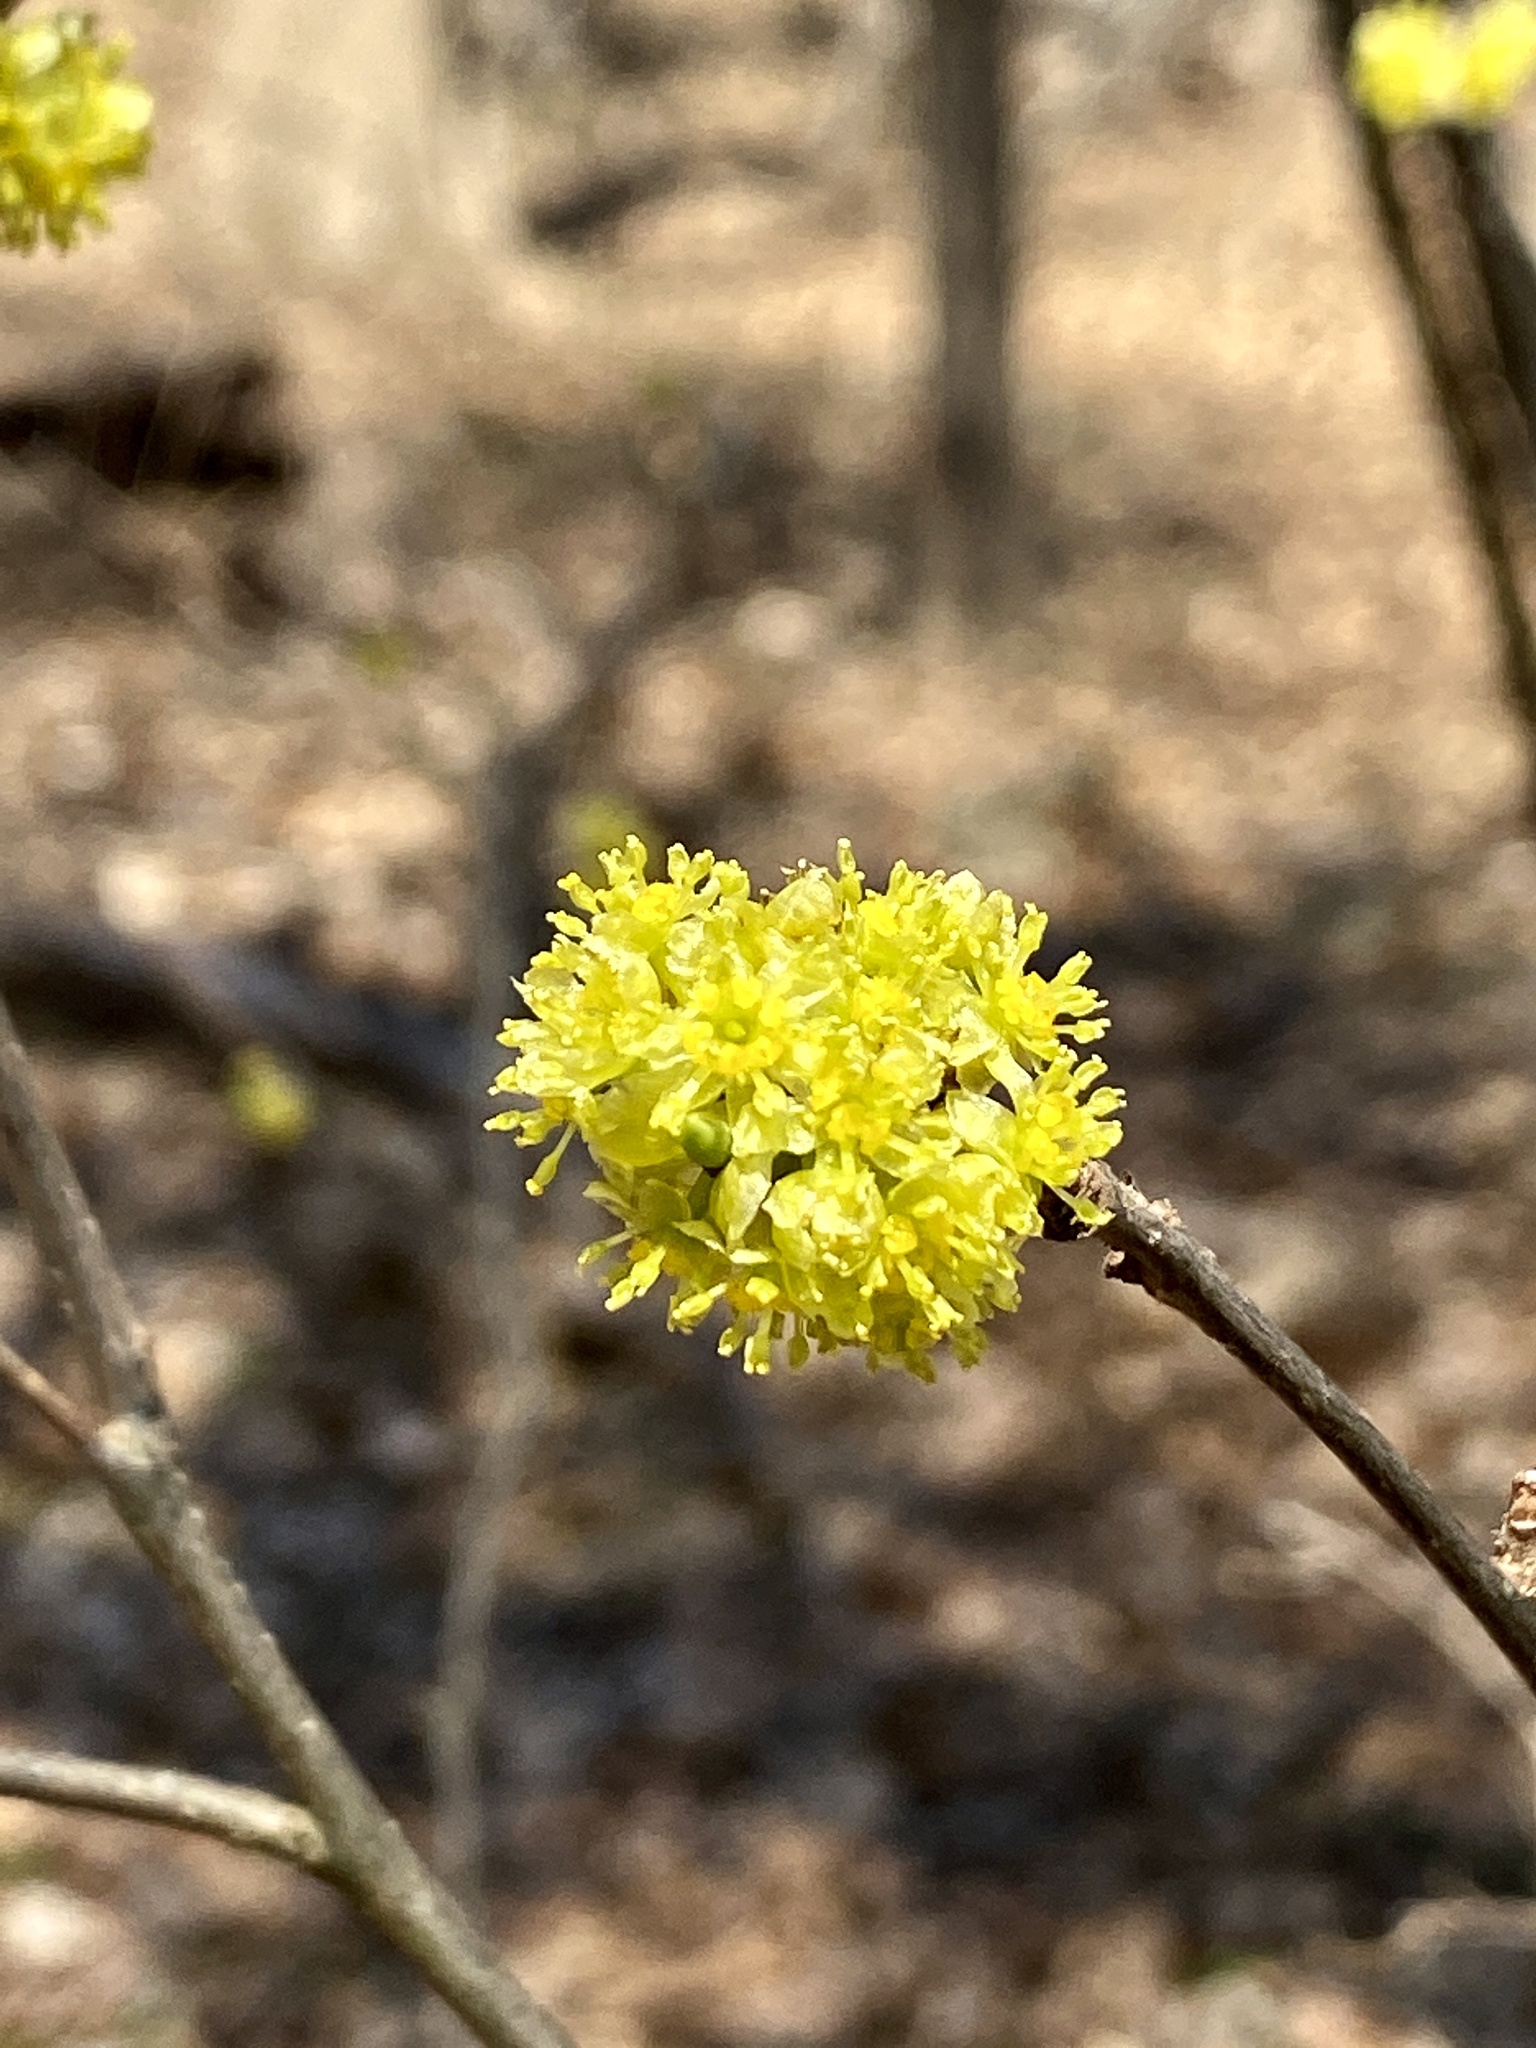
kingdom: Plantae
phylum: Tracheophyta
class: Magnoliopsida
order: Laurales
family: Lauraceae
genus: Lindera
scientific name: Lindera benzoin
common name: Spicebush
